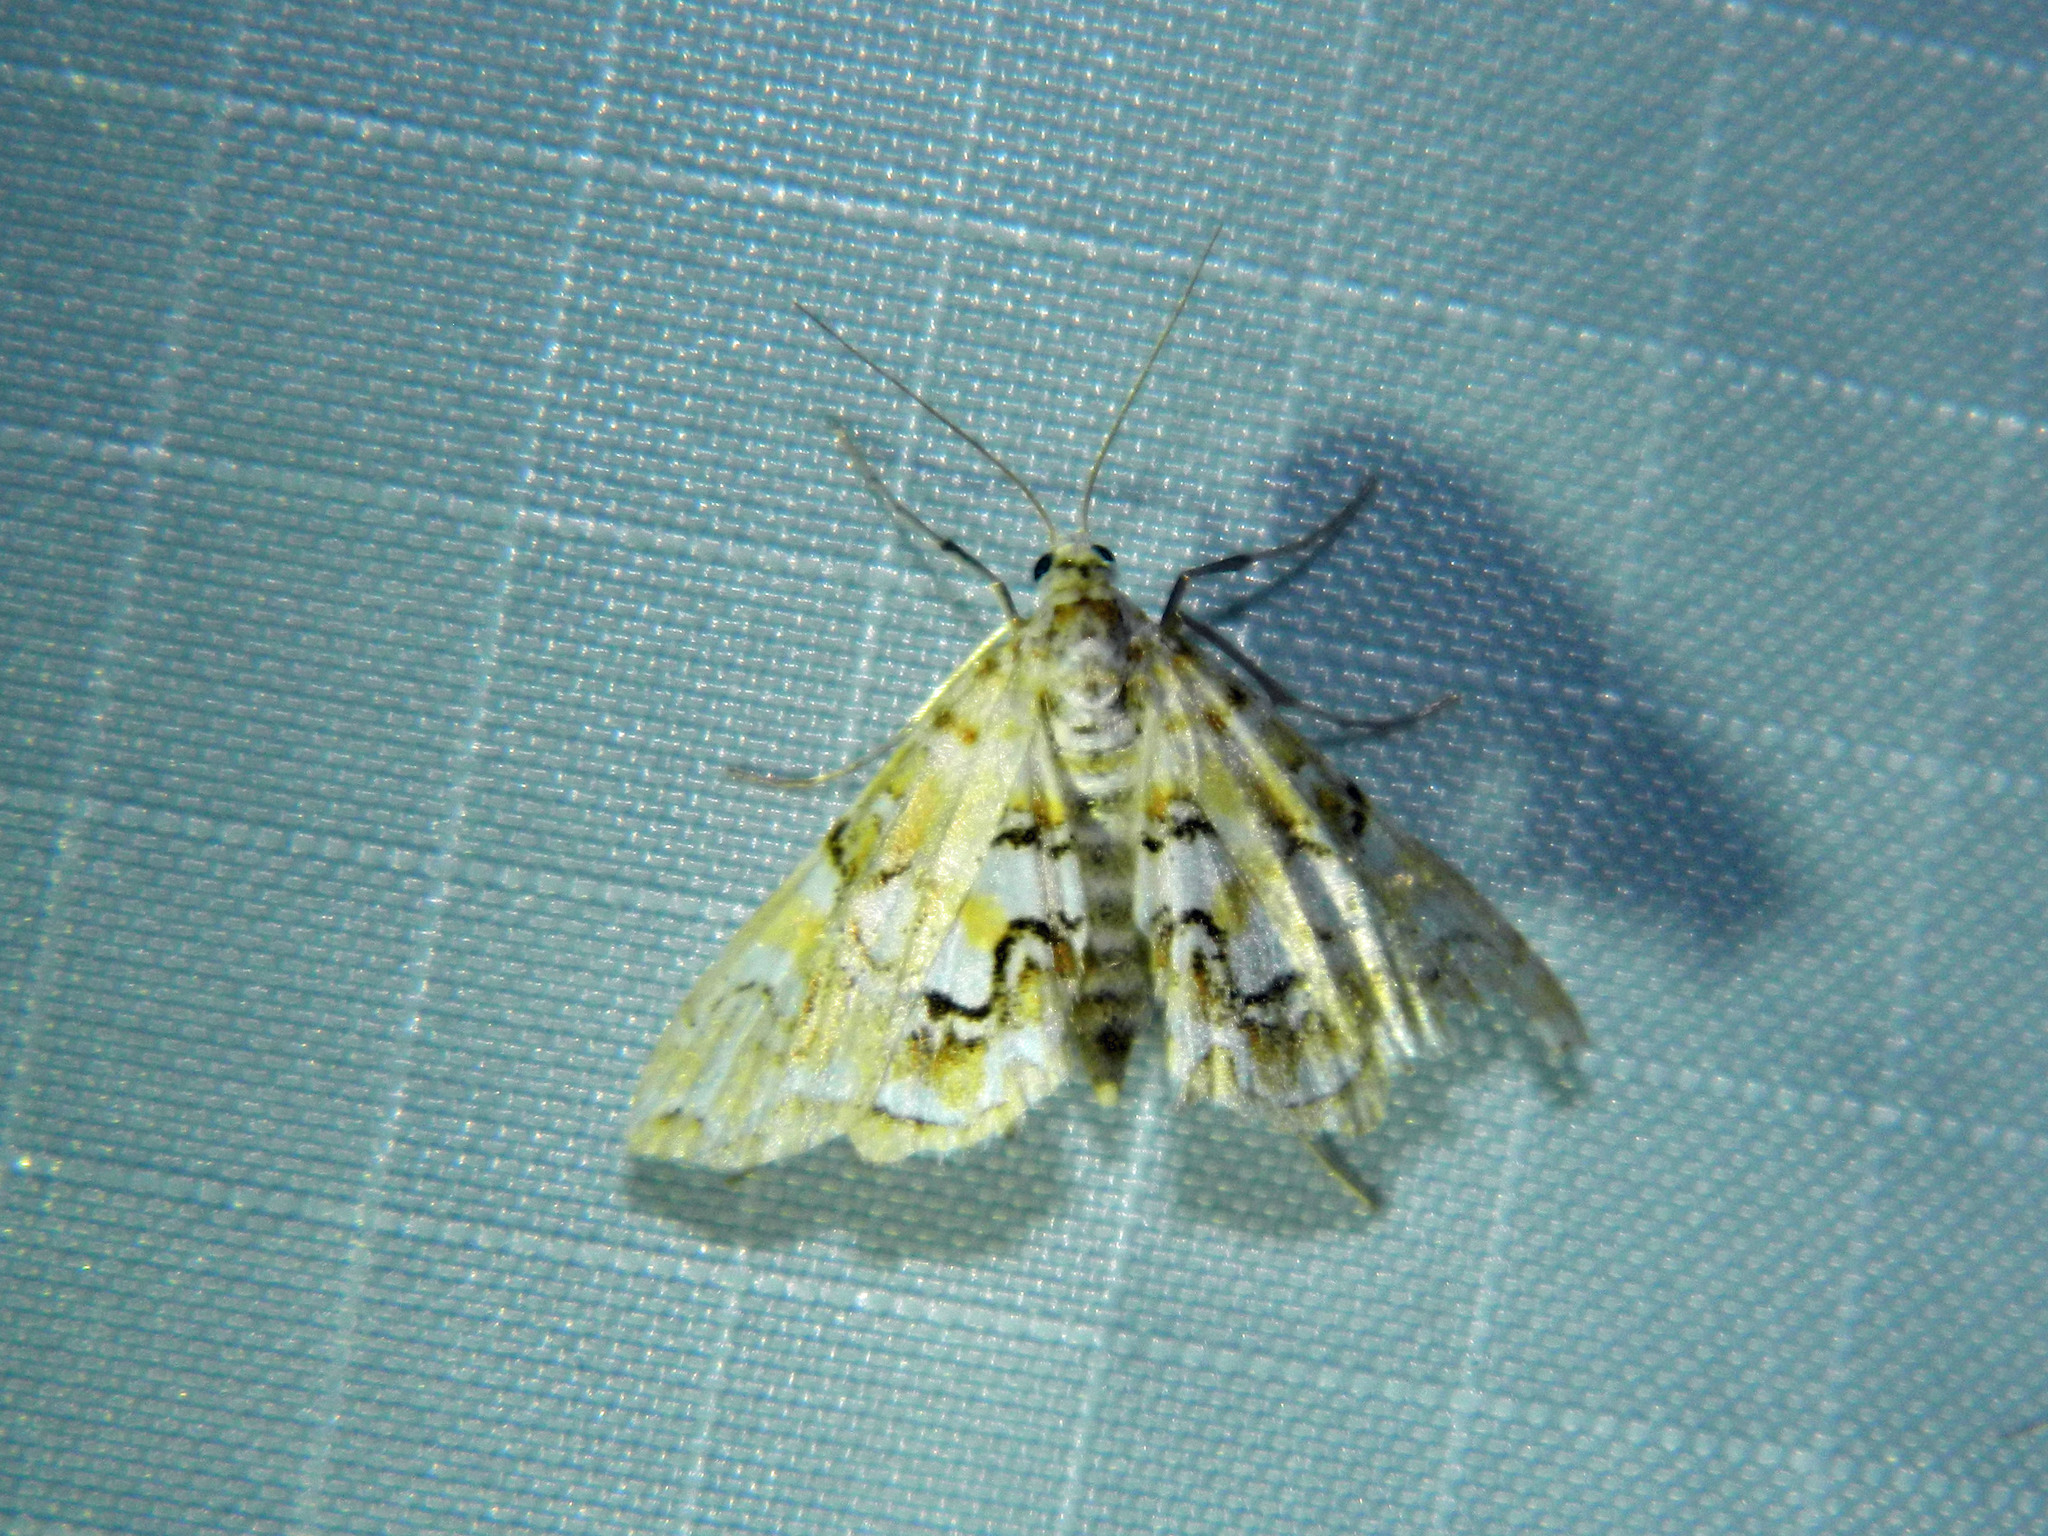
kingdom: Animalia
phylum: Arthropoda
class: Insecta
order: Lepidoptera
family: Crambidae
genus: Elophila
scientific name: Elophila icciusalis
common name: Pondside pyralid moth
